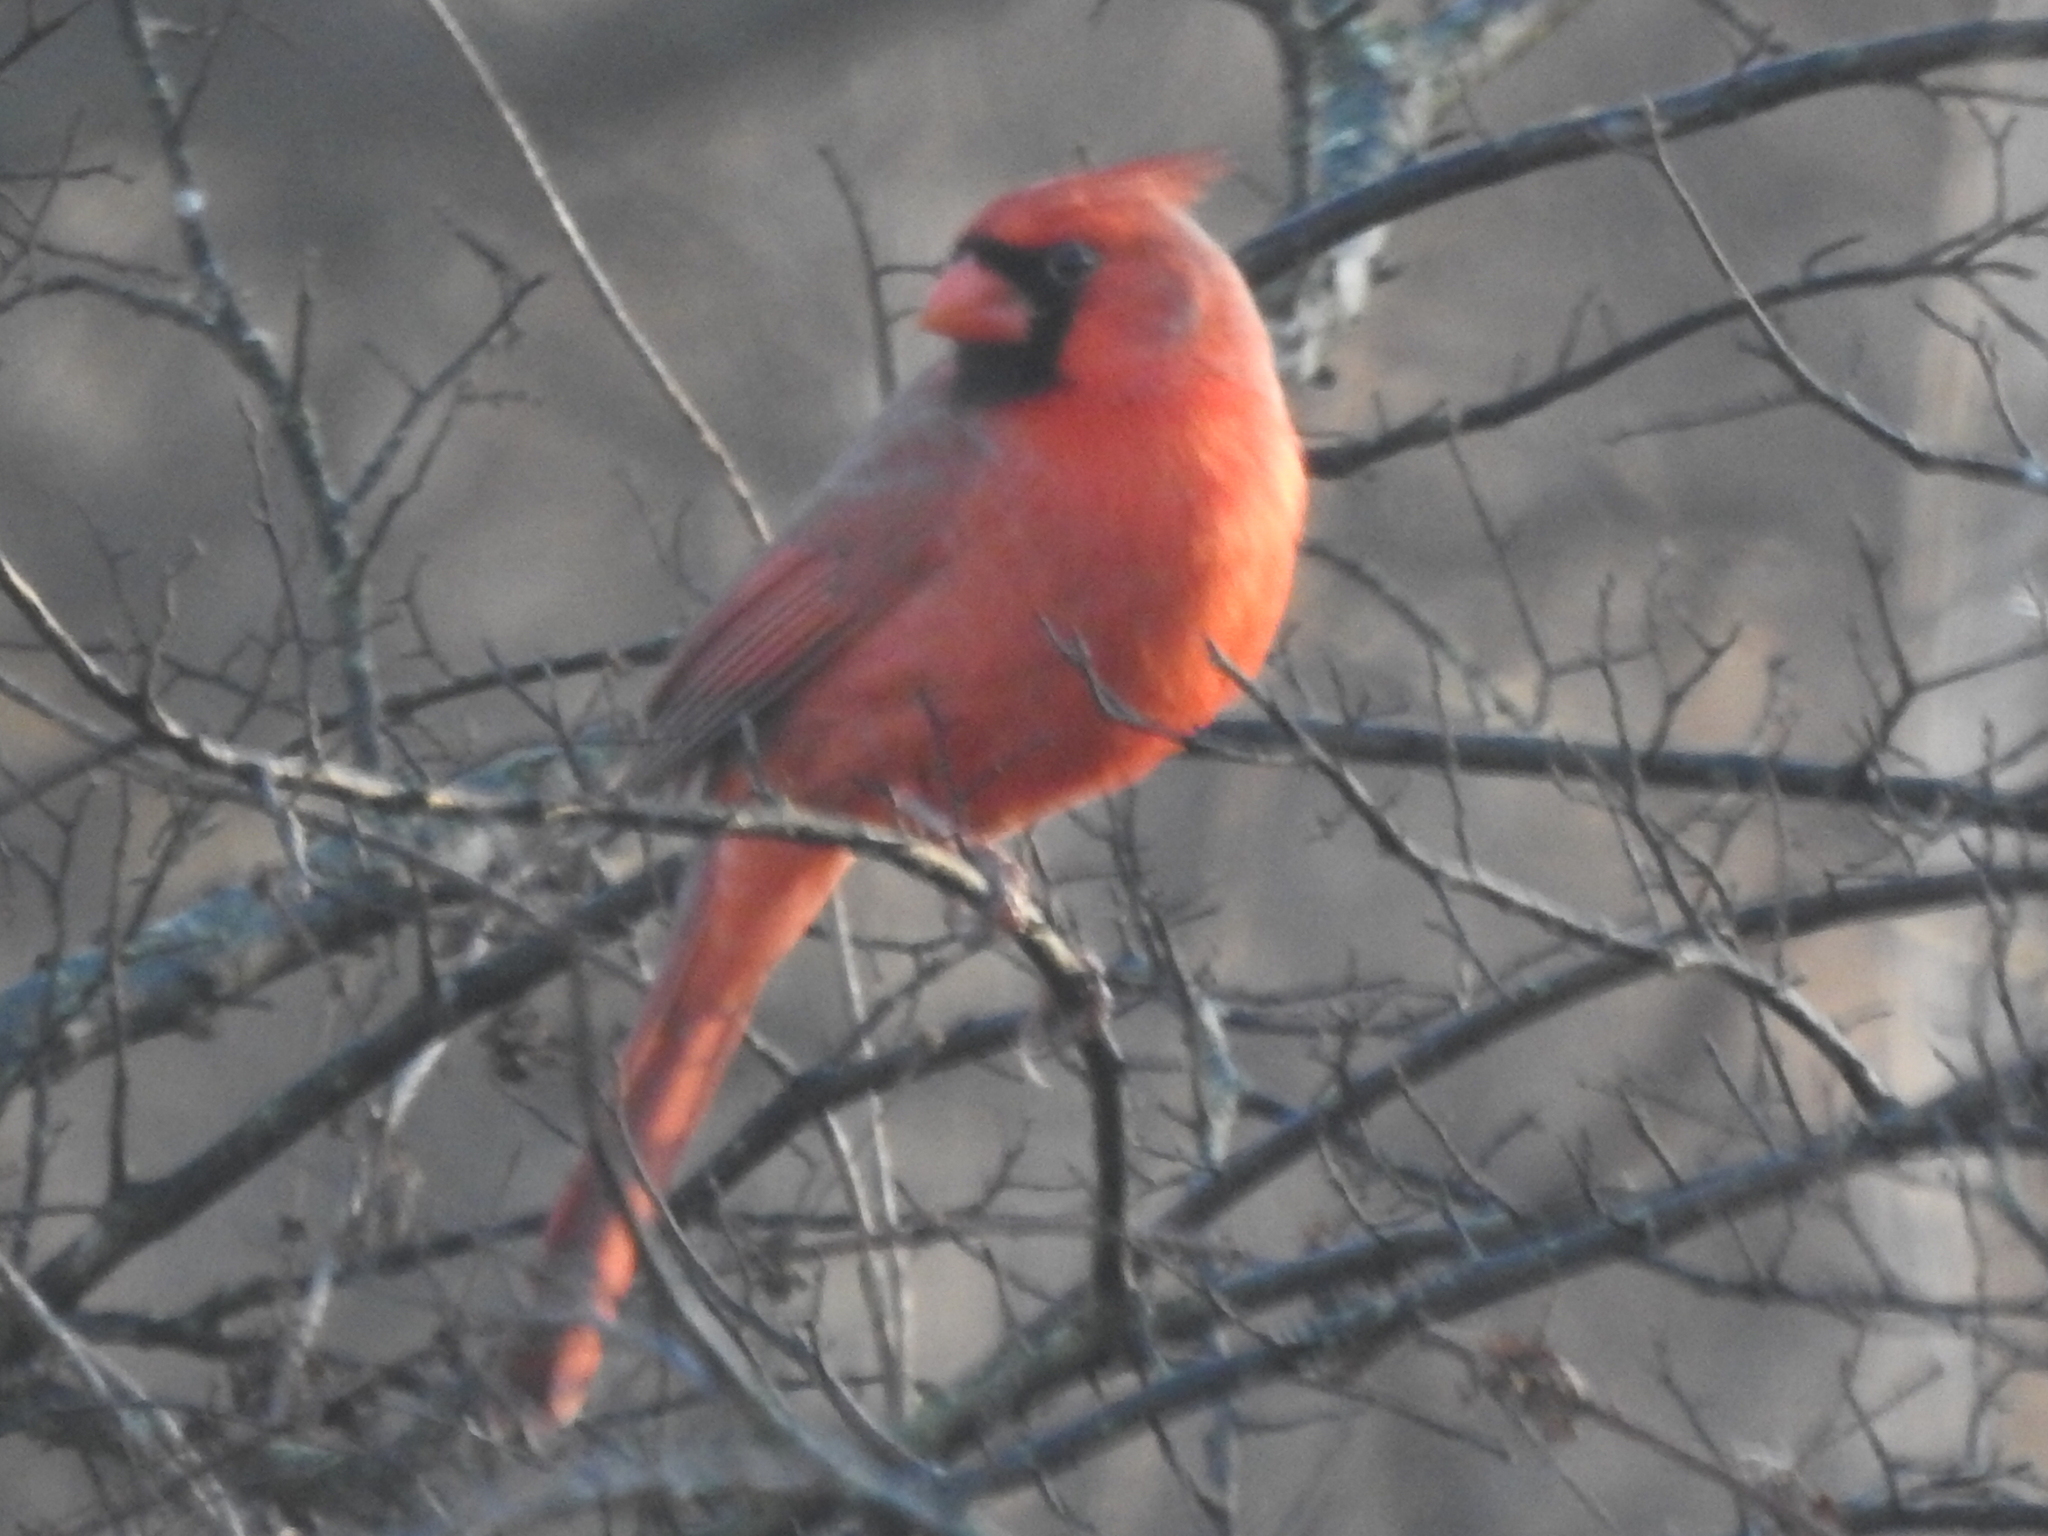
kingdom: Animalia
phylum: Chordata
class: Aves
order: Passeriformes
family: Cardinalidae
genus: Cardinalis
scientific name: Cardinalis cardinalis
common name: Northern cardinal
